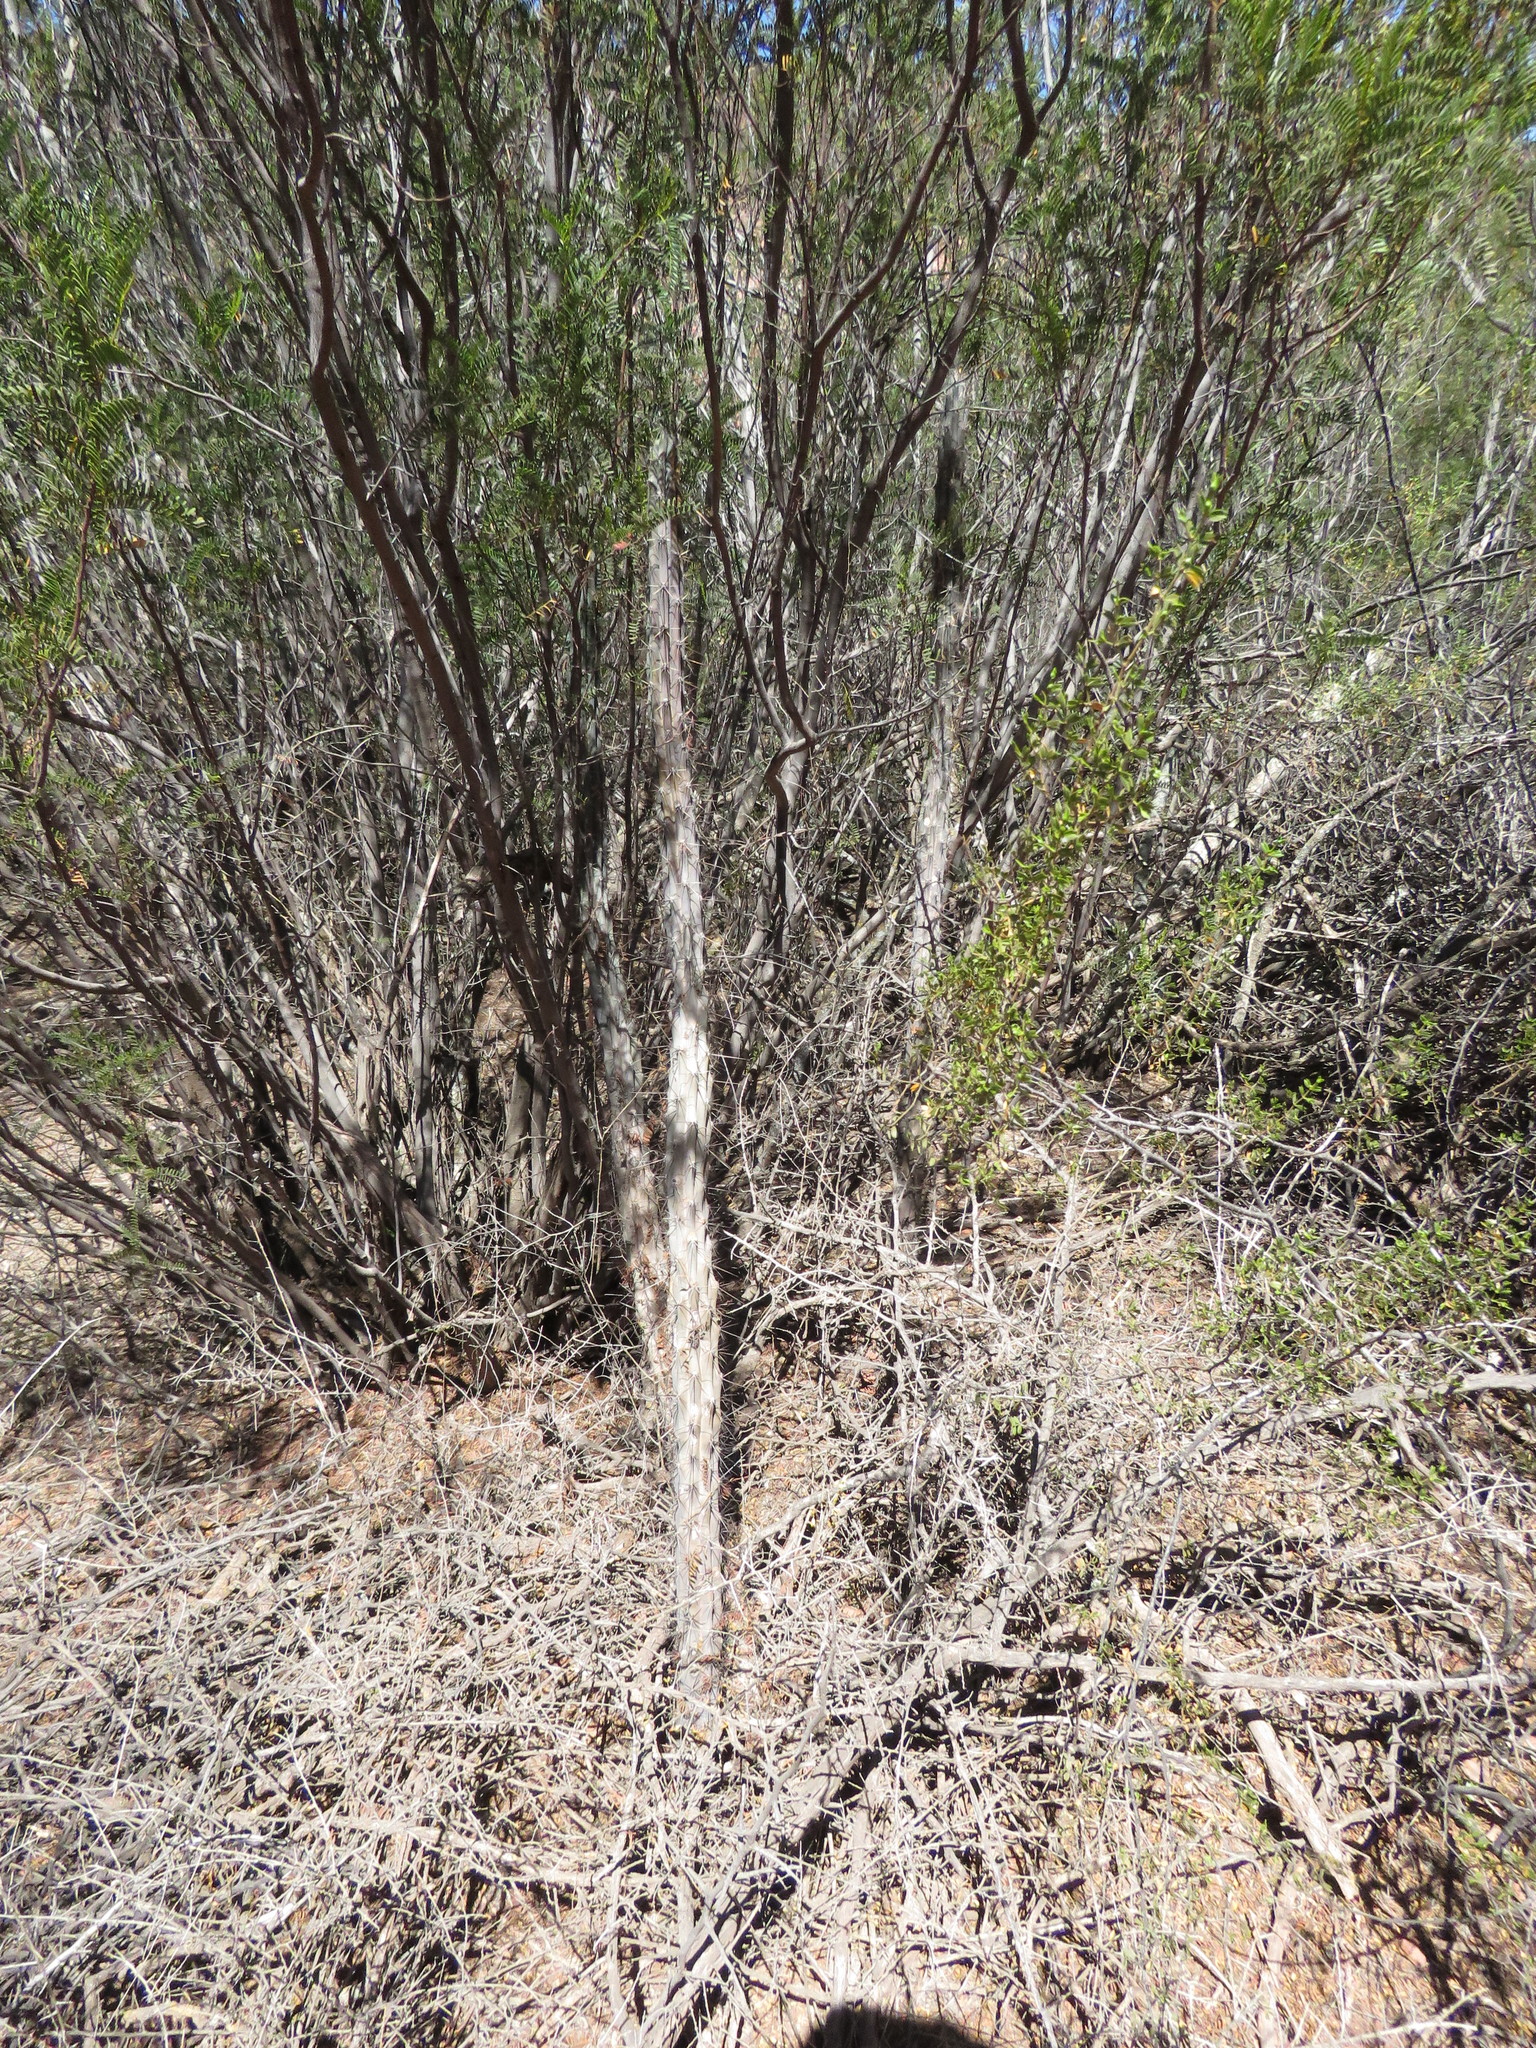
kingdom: Plantae
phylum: Tracheophyta
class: Magnoliopsida
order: Caryophyllales
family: Cactaceae
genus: Cereus
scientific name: Cereus aethiops
